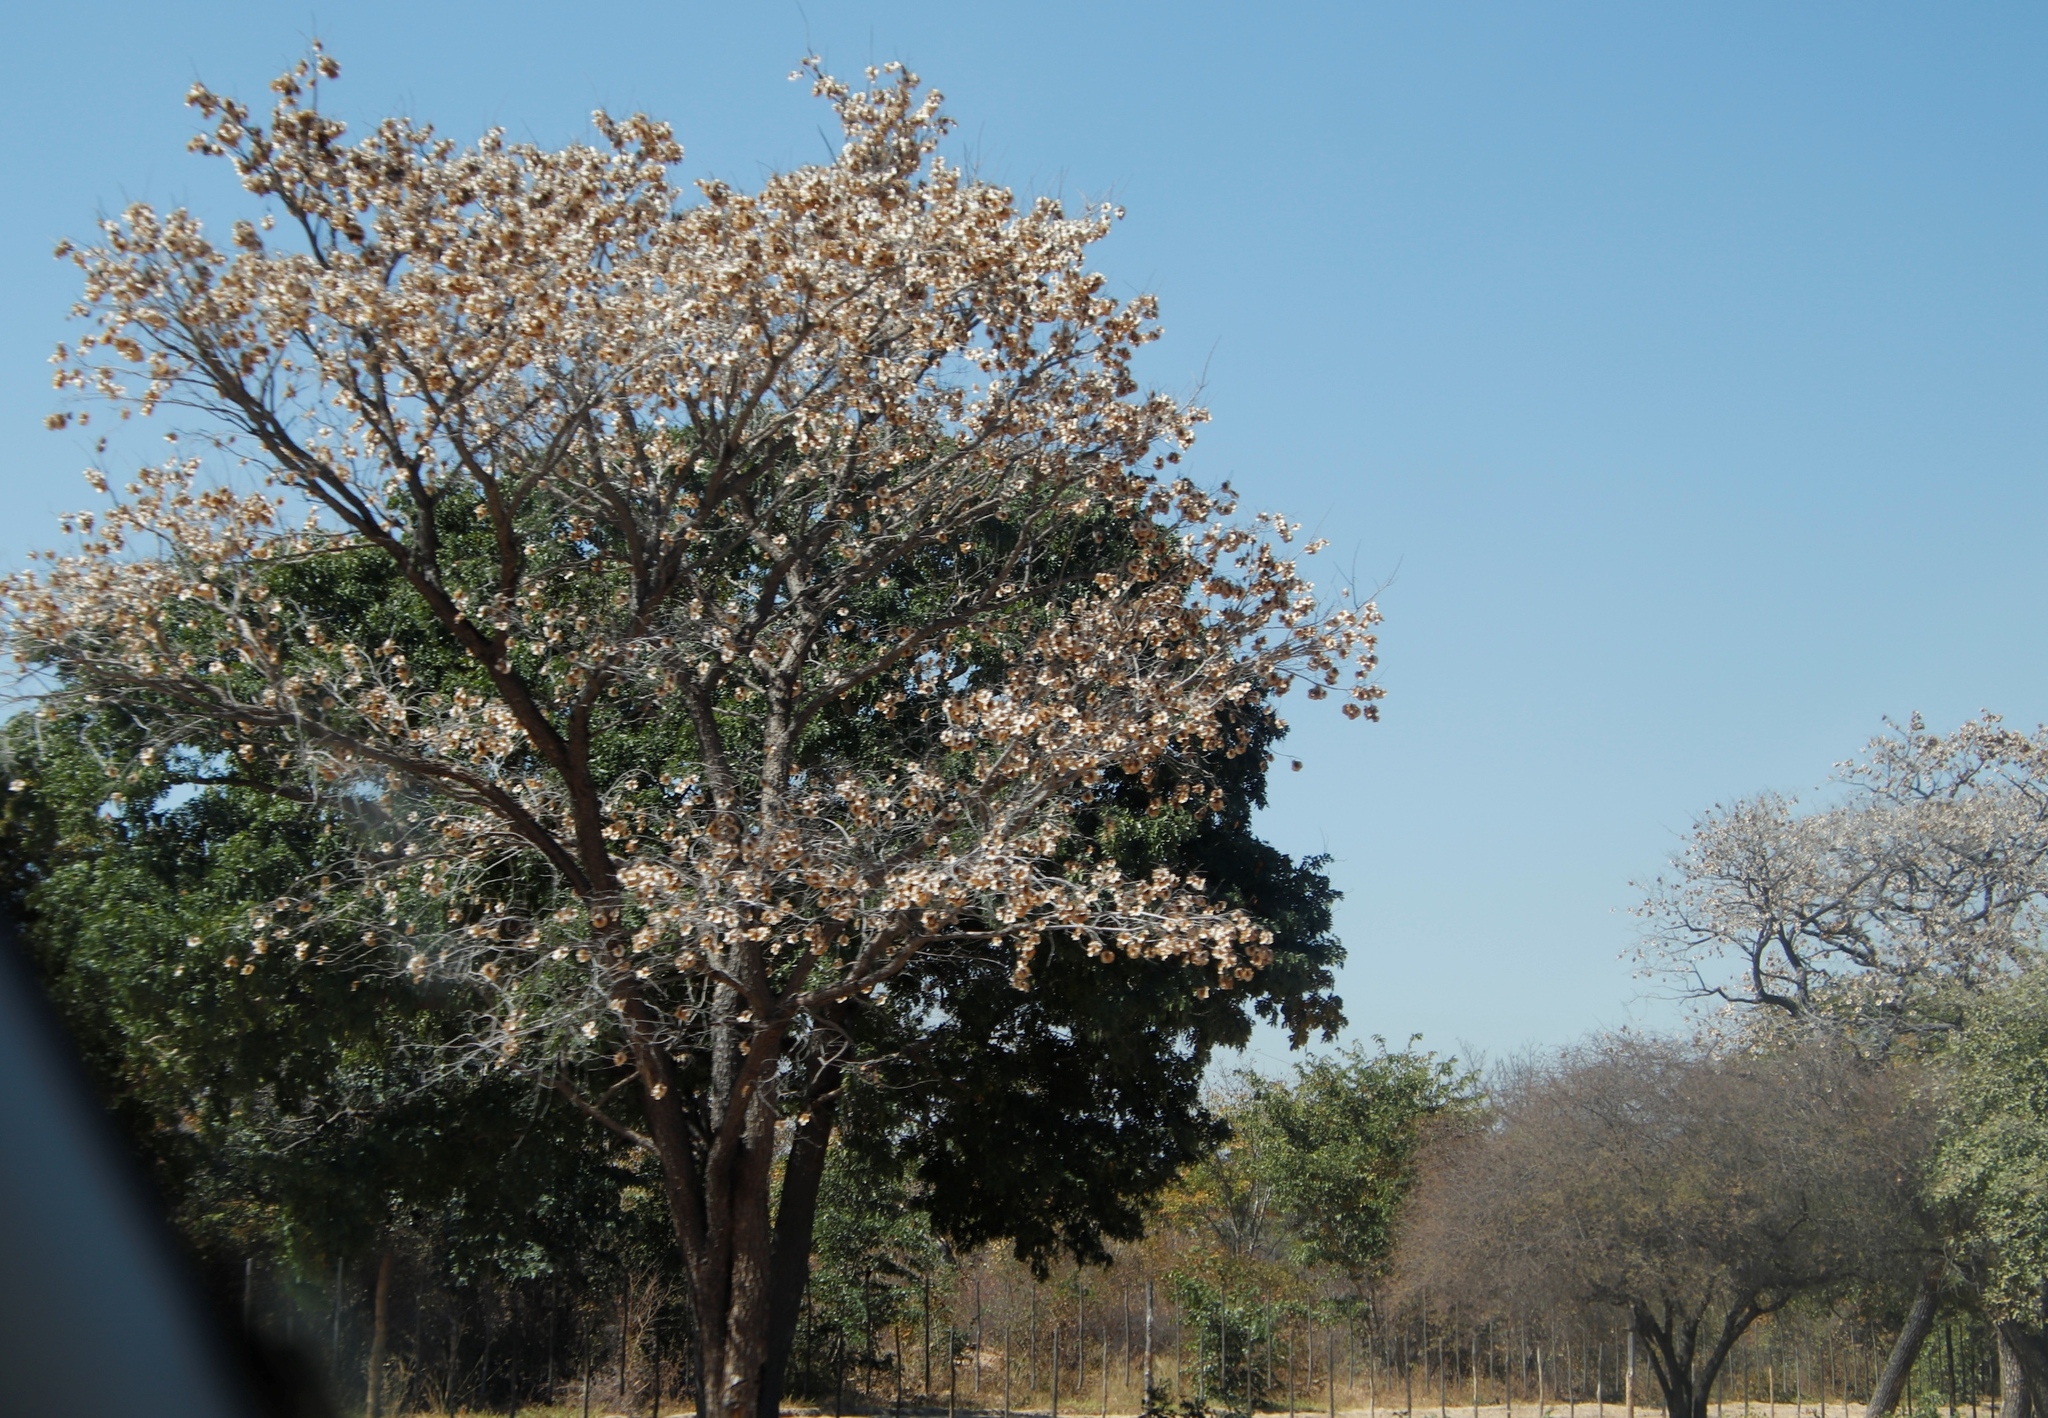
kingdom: Plantae
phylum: Tracheophyta
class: Magnoliopsida
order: Fabales
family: Fabaceae
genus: Pterocarpus
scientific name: Pterocarpus angolensis
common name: Bloodwood tree
